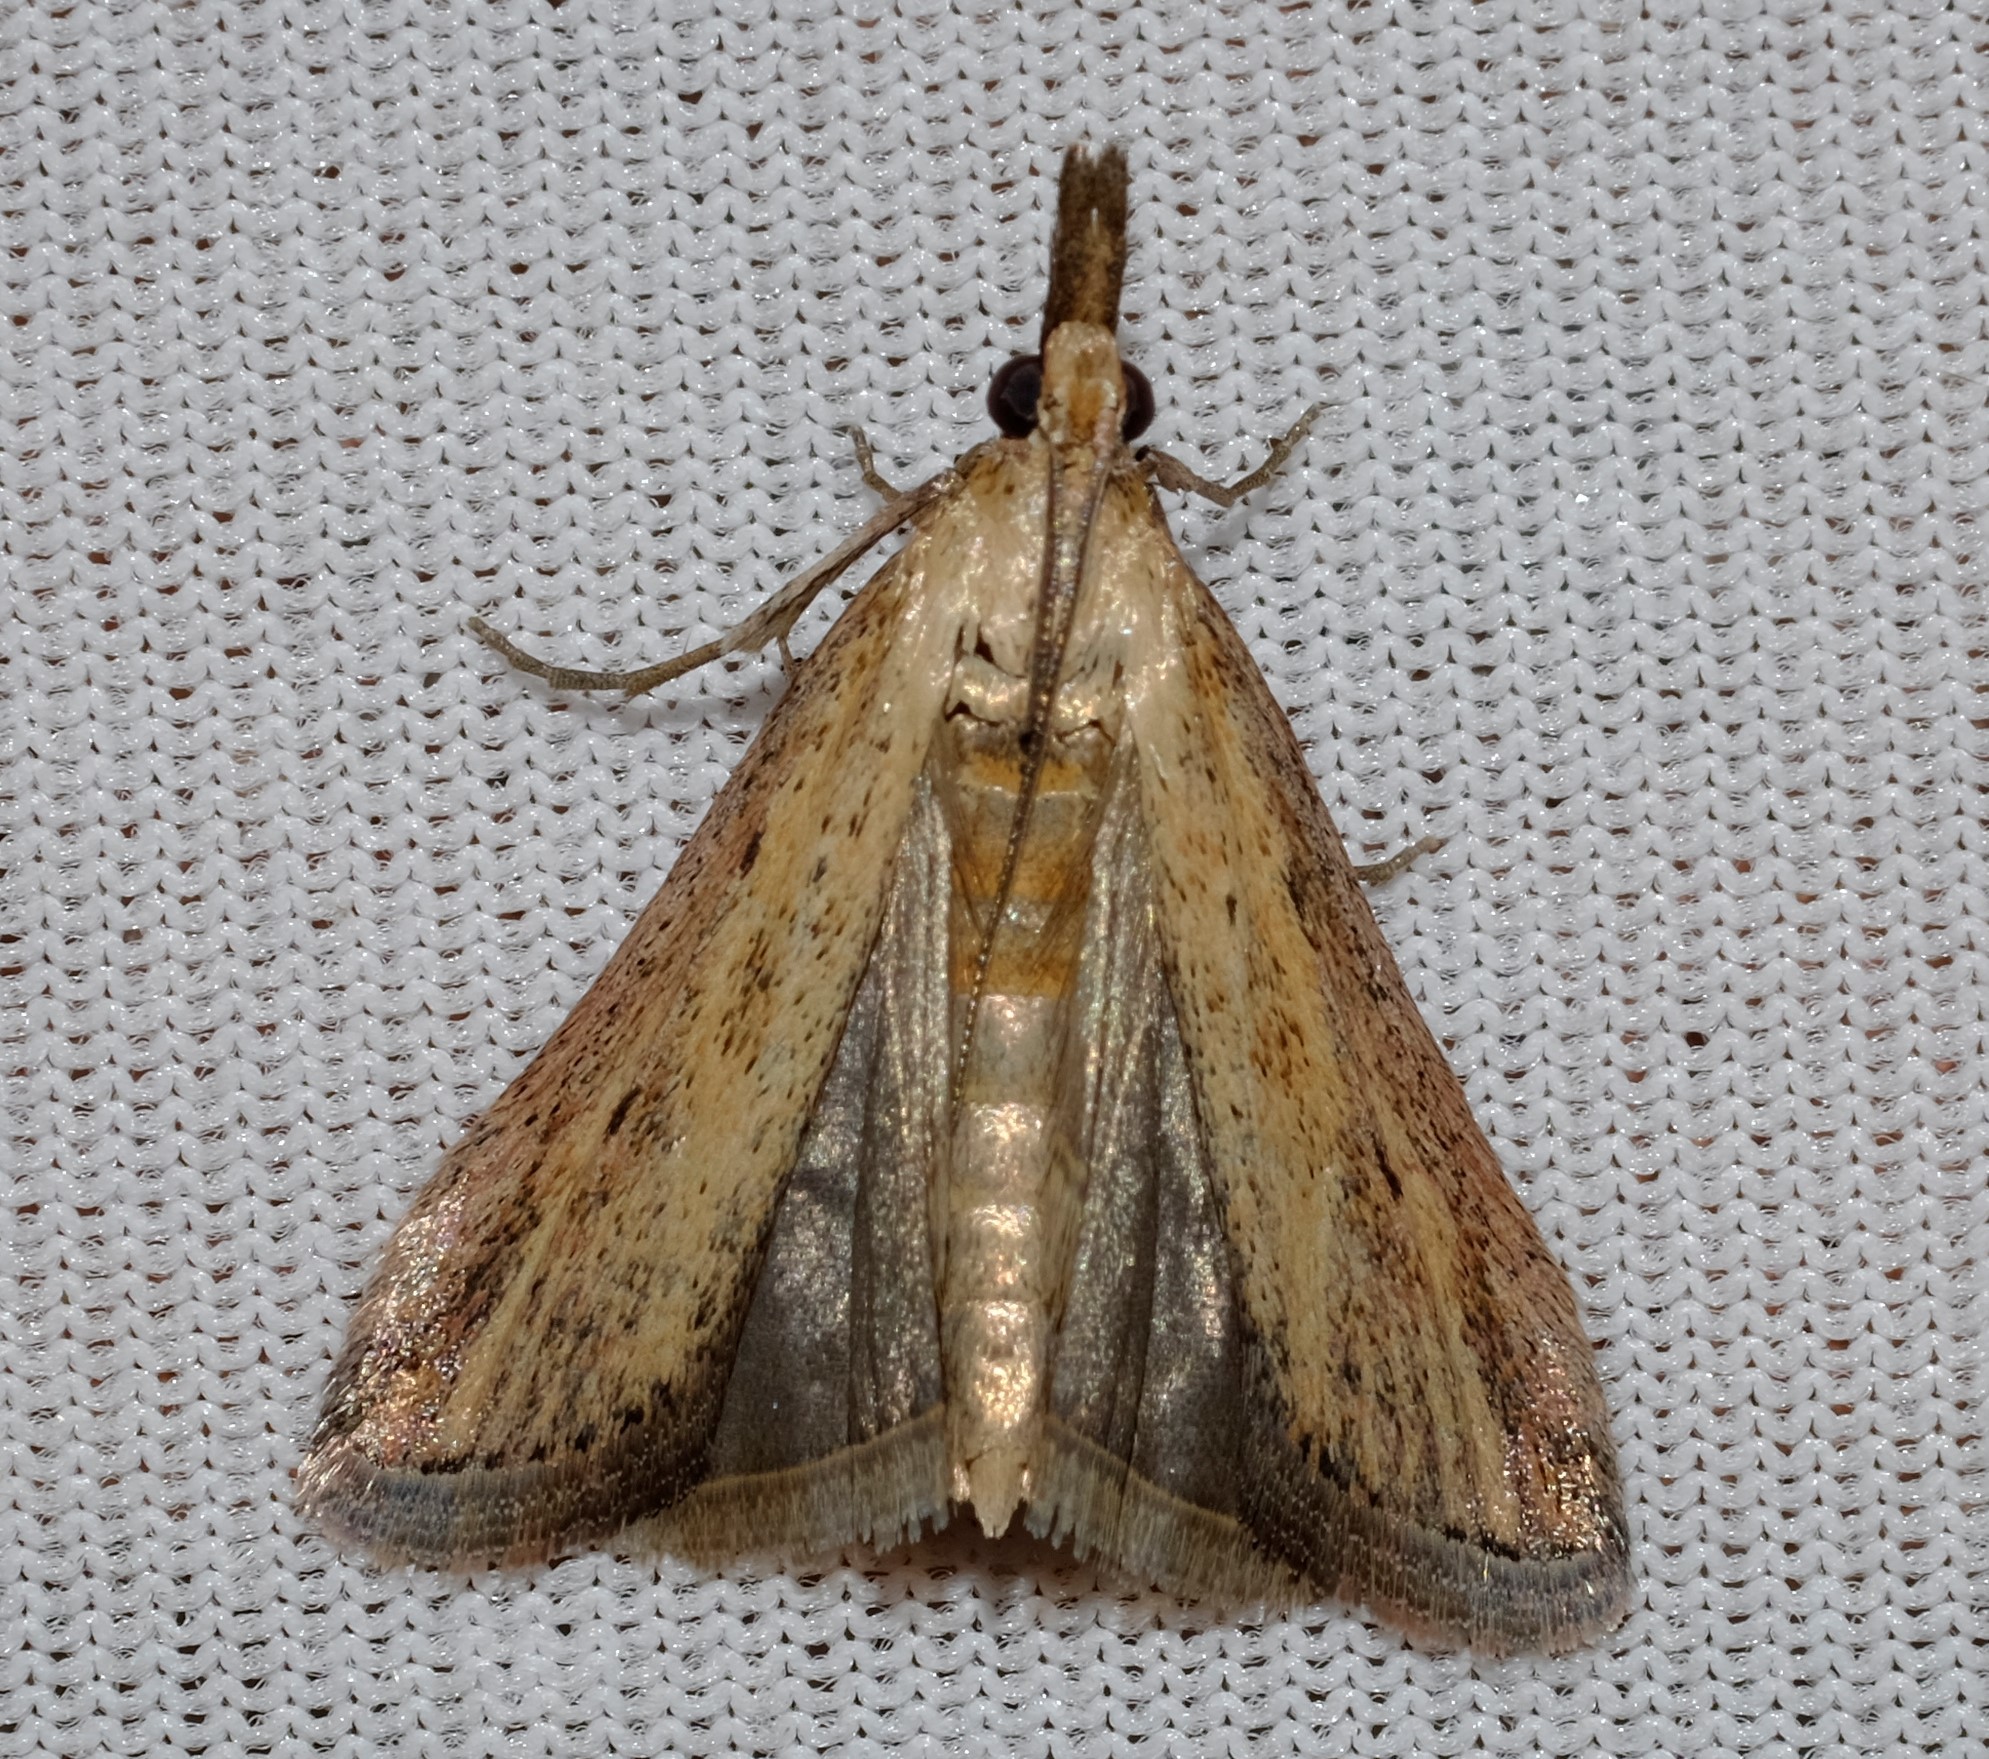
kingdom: Animalia
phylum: Arthropoda
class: Insecta
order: Lepidoptera
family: Pyralidae
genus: Faveria
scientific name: Faveria tritalis
